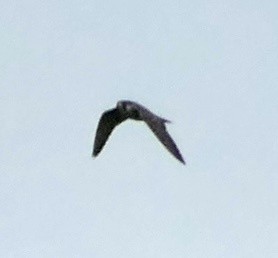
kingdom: Animalia
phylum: Chordata
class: Aves
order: Falconiformes
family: Falconidae
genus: Falco
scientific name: Falco peregrinus
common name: Peregrine falcon
